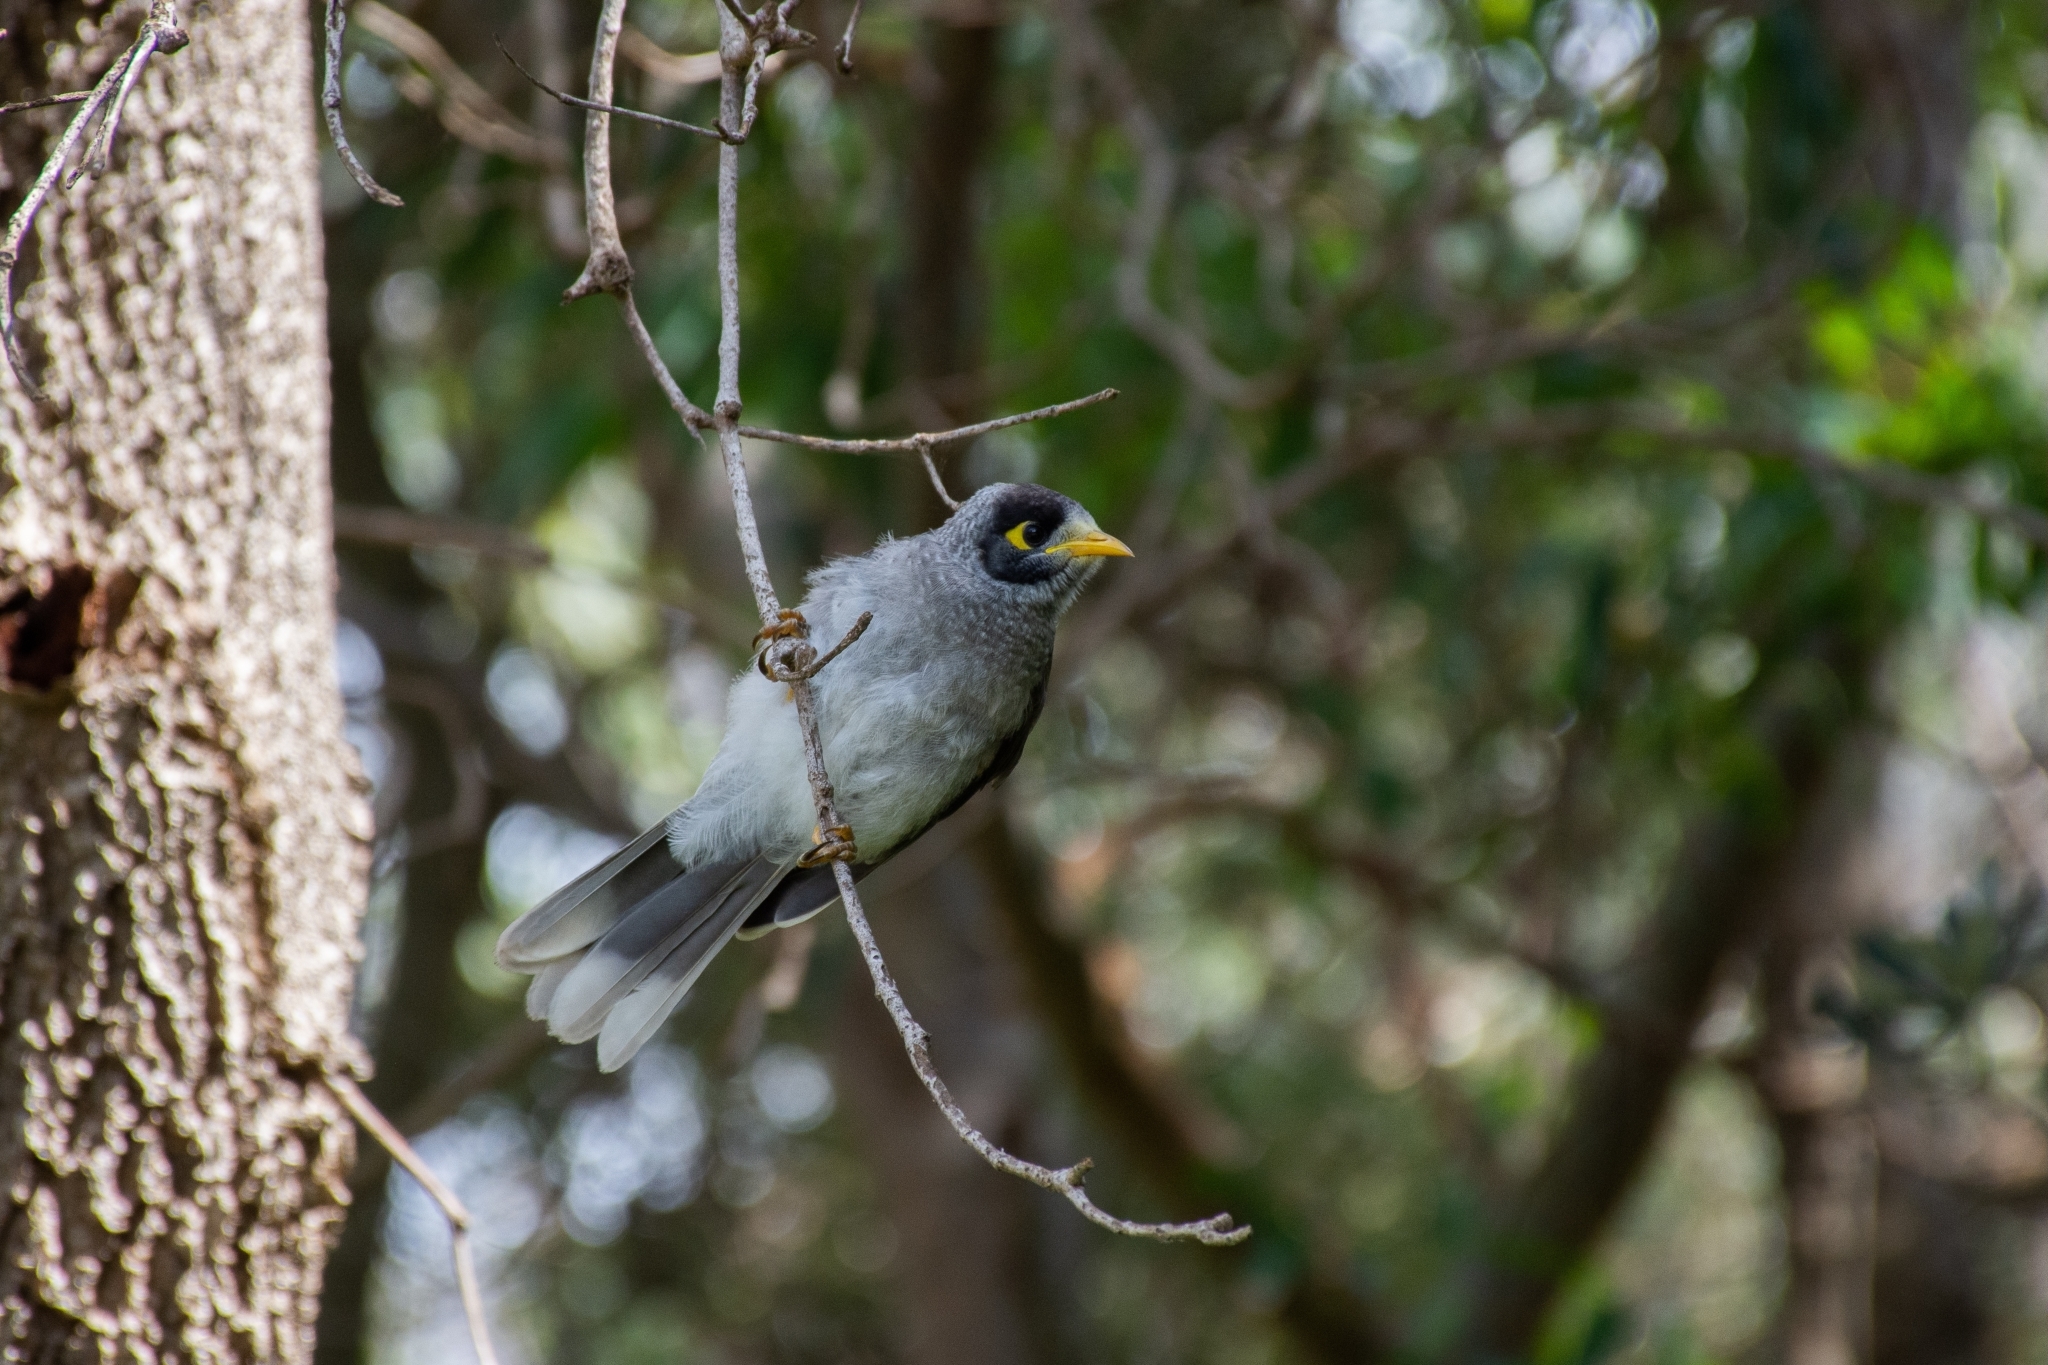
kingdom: Animalia
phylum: Chordata
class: Aves
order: Passeriformes
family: Meliphagidae
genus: Manorina
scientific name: Manorina melanocephala
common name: Noisy miner
